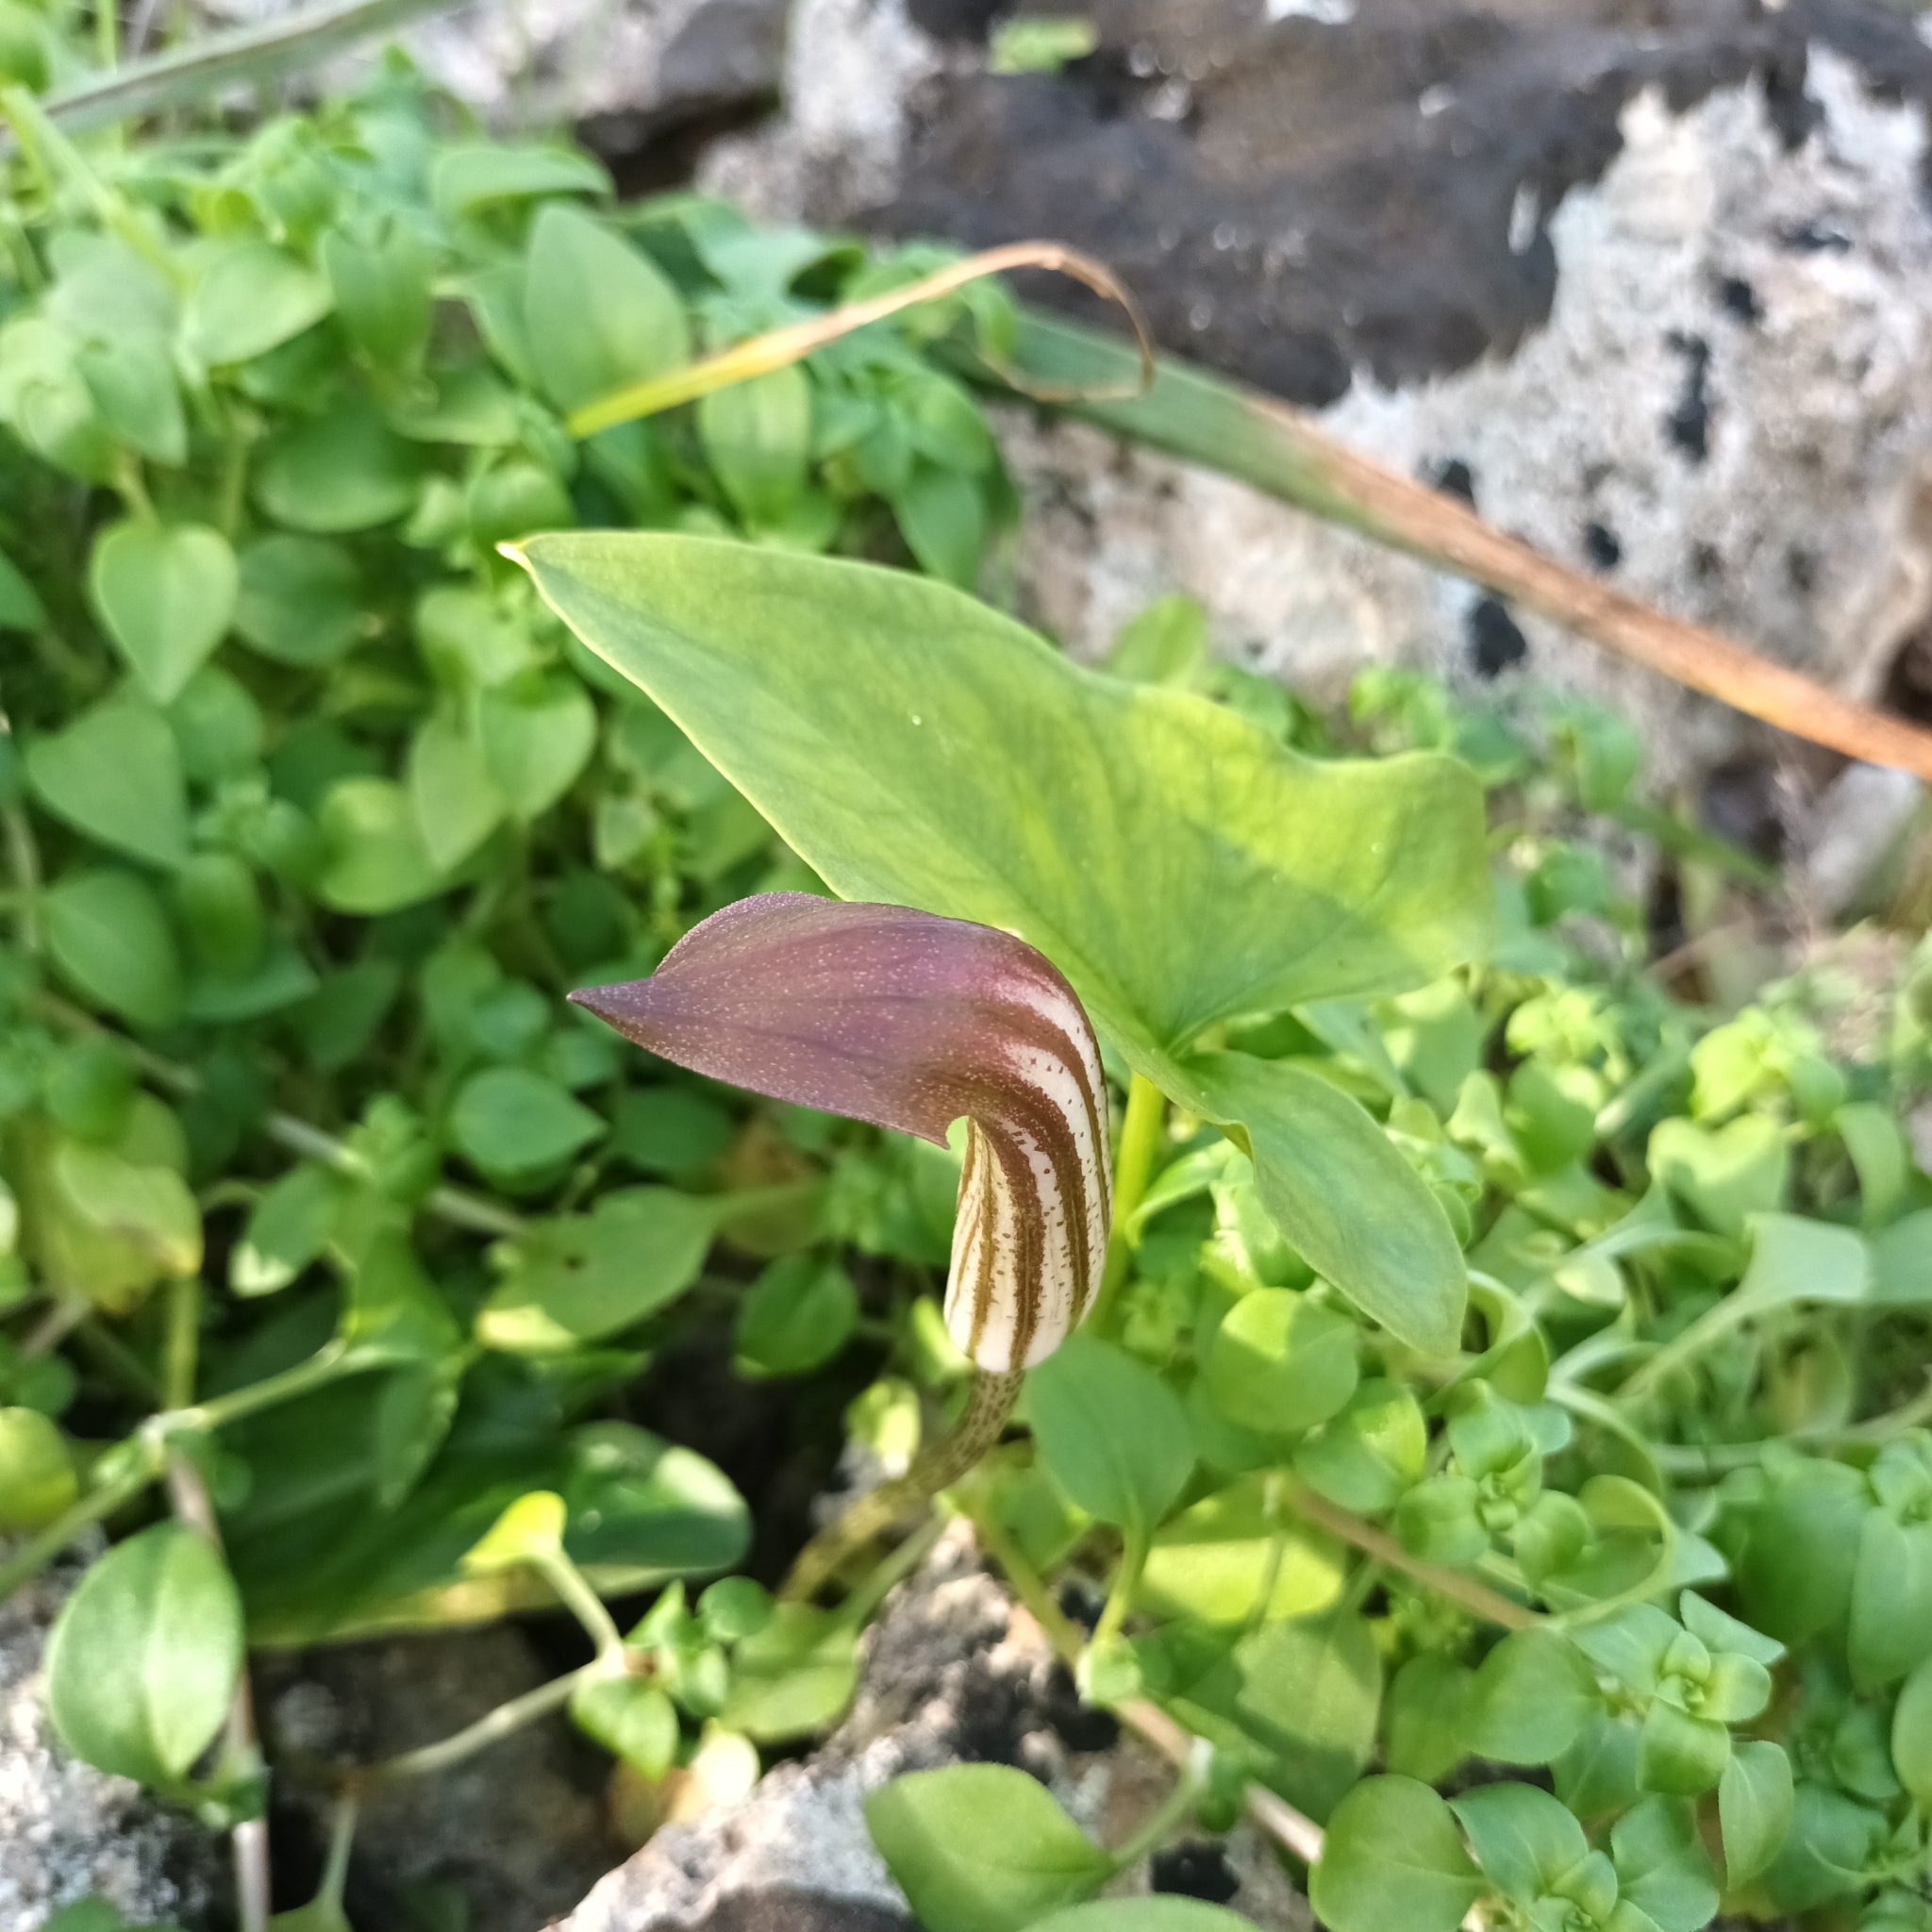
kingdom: Plantae
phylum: Tracheophyta
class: Liliopsida
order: Alismatales
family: Araceae
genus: Arisarum
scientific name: Arisarum vulgare
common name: Common arisarum
